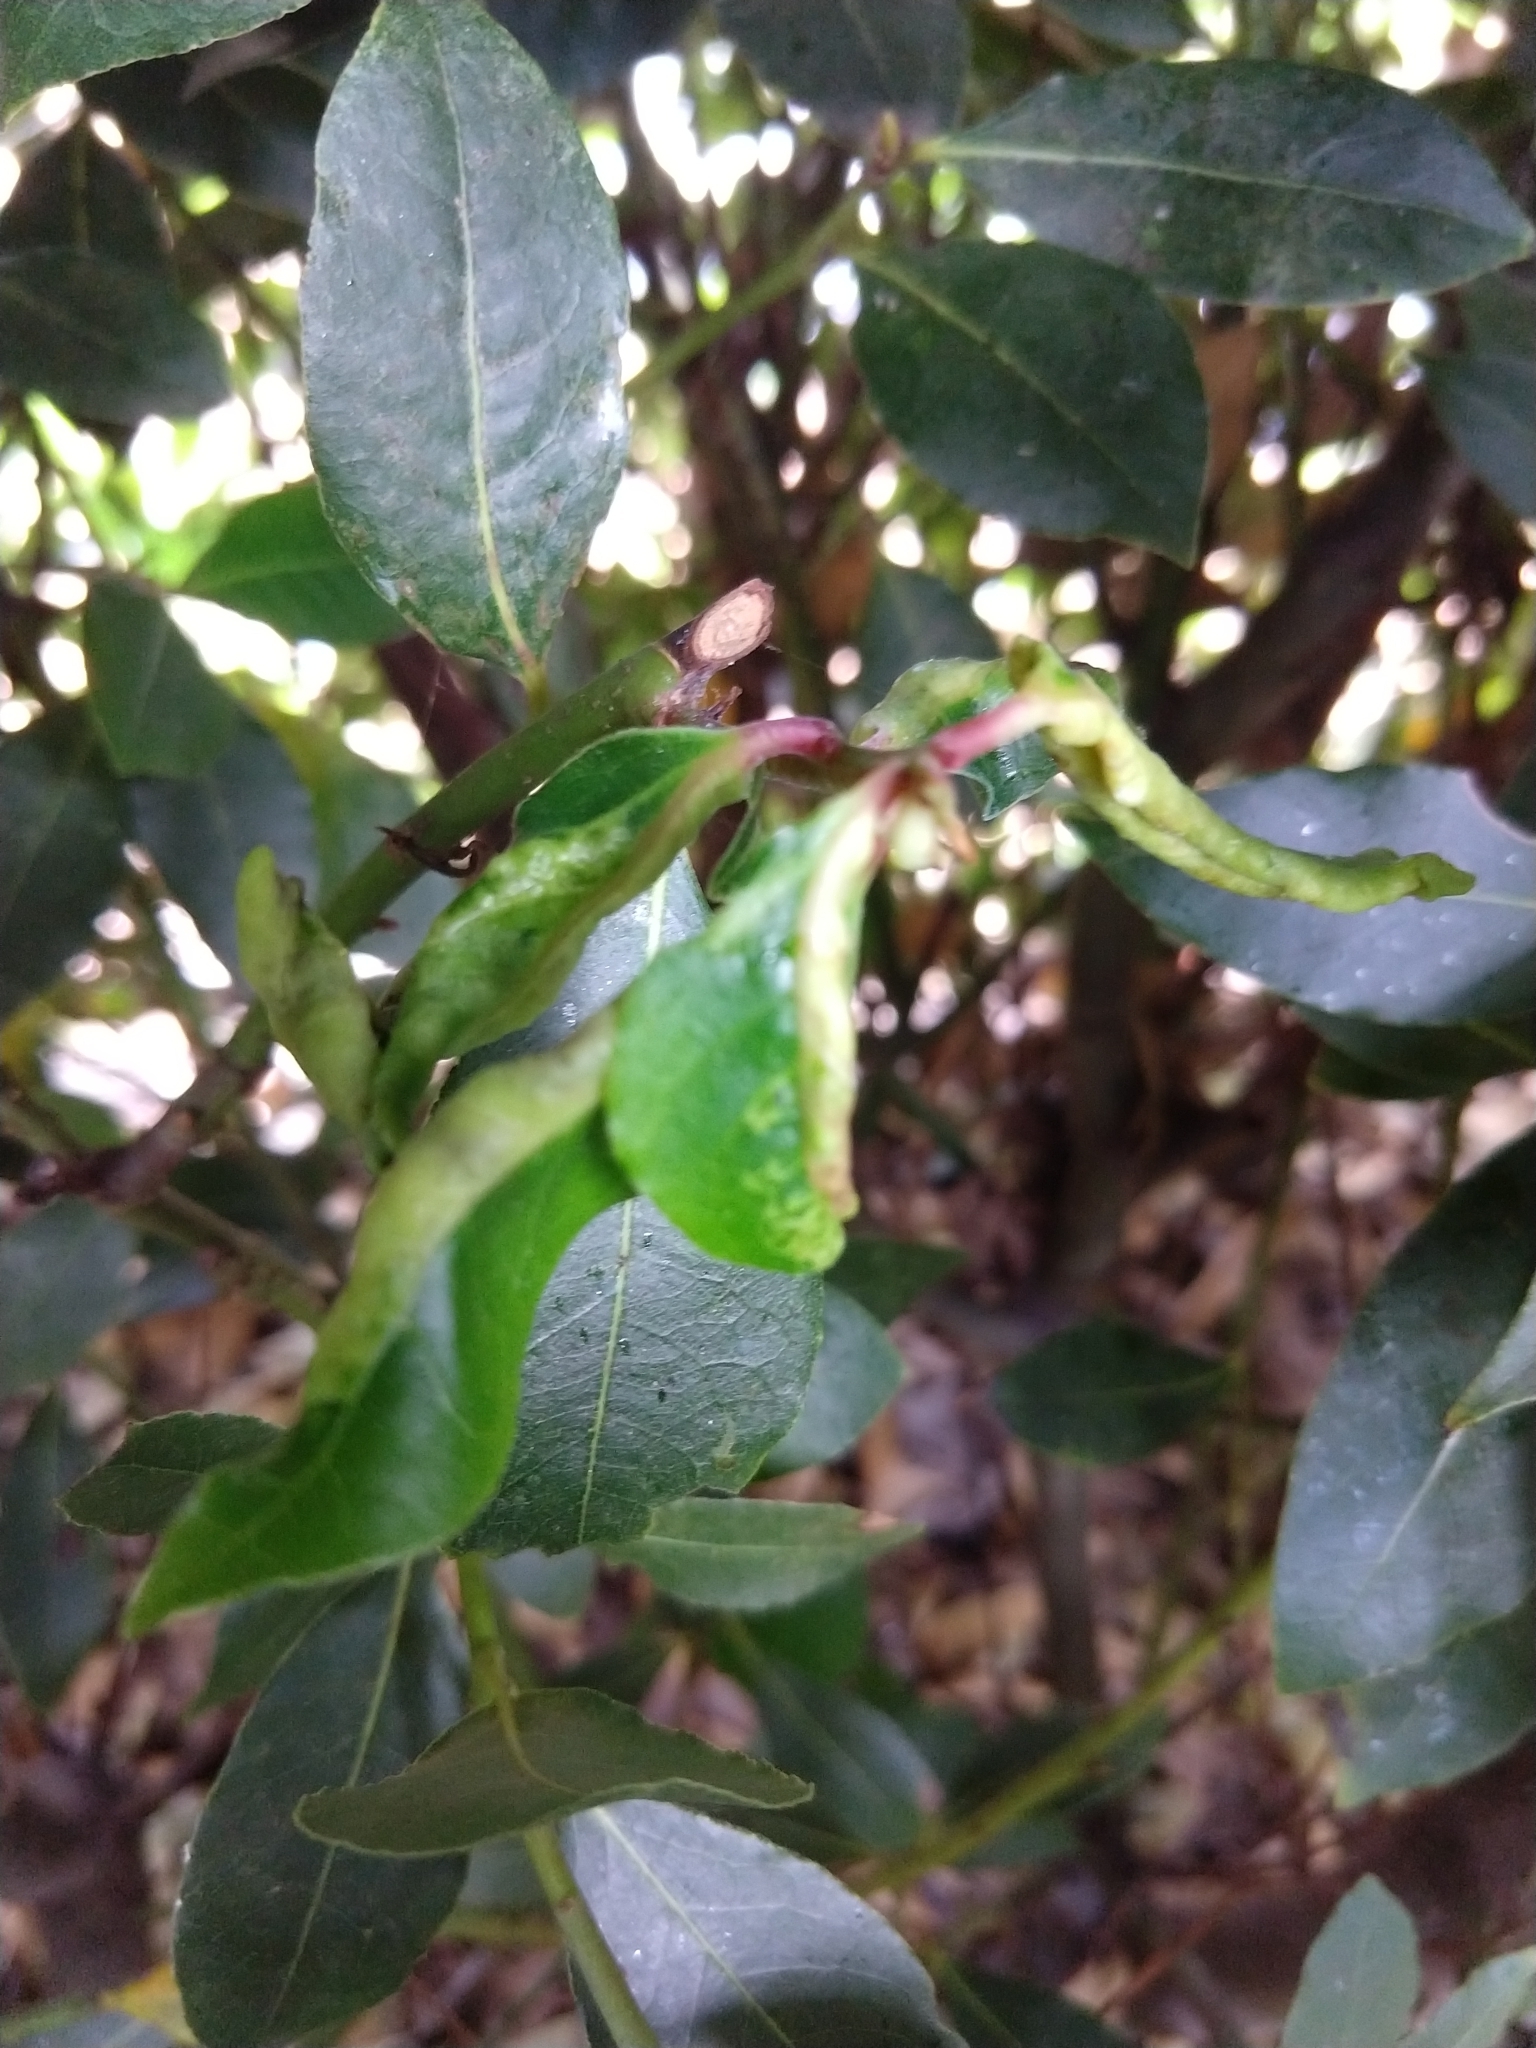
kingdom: Animalia
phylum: Arthropoda
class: Insecta
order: Hemiptera
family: Triozidae
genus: Lauritrioza
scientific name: Lauritrioza alacris
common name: Laurel psyllid
